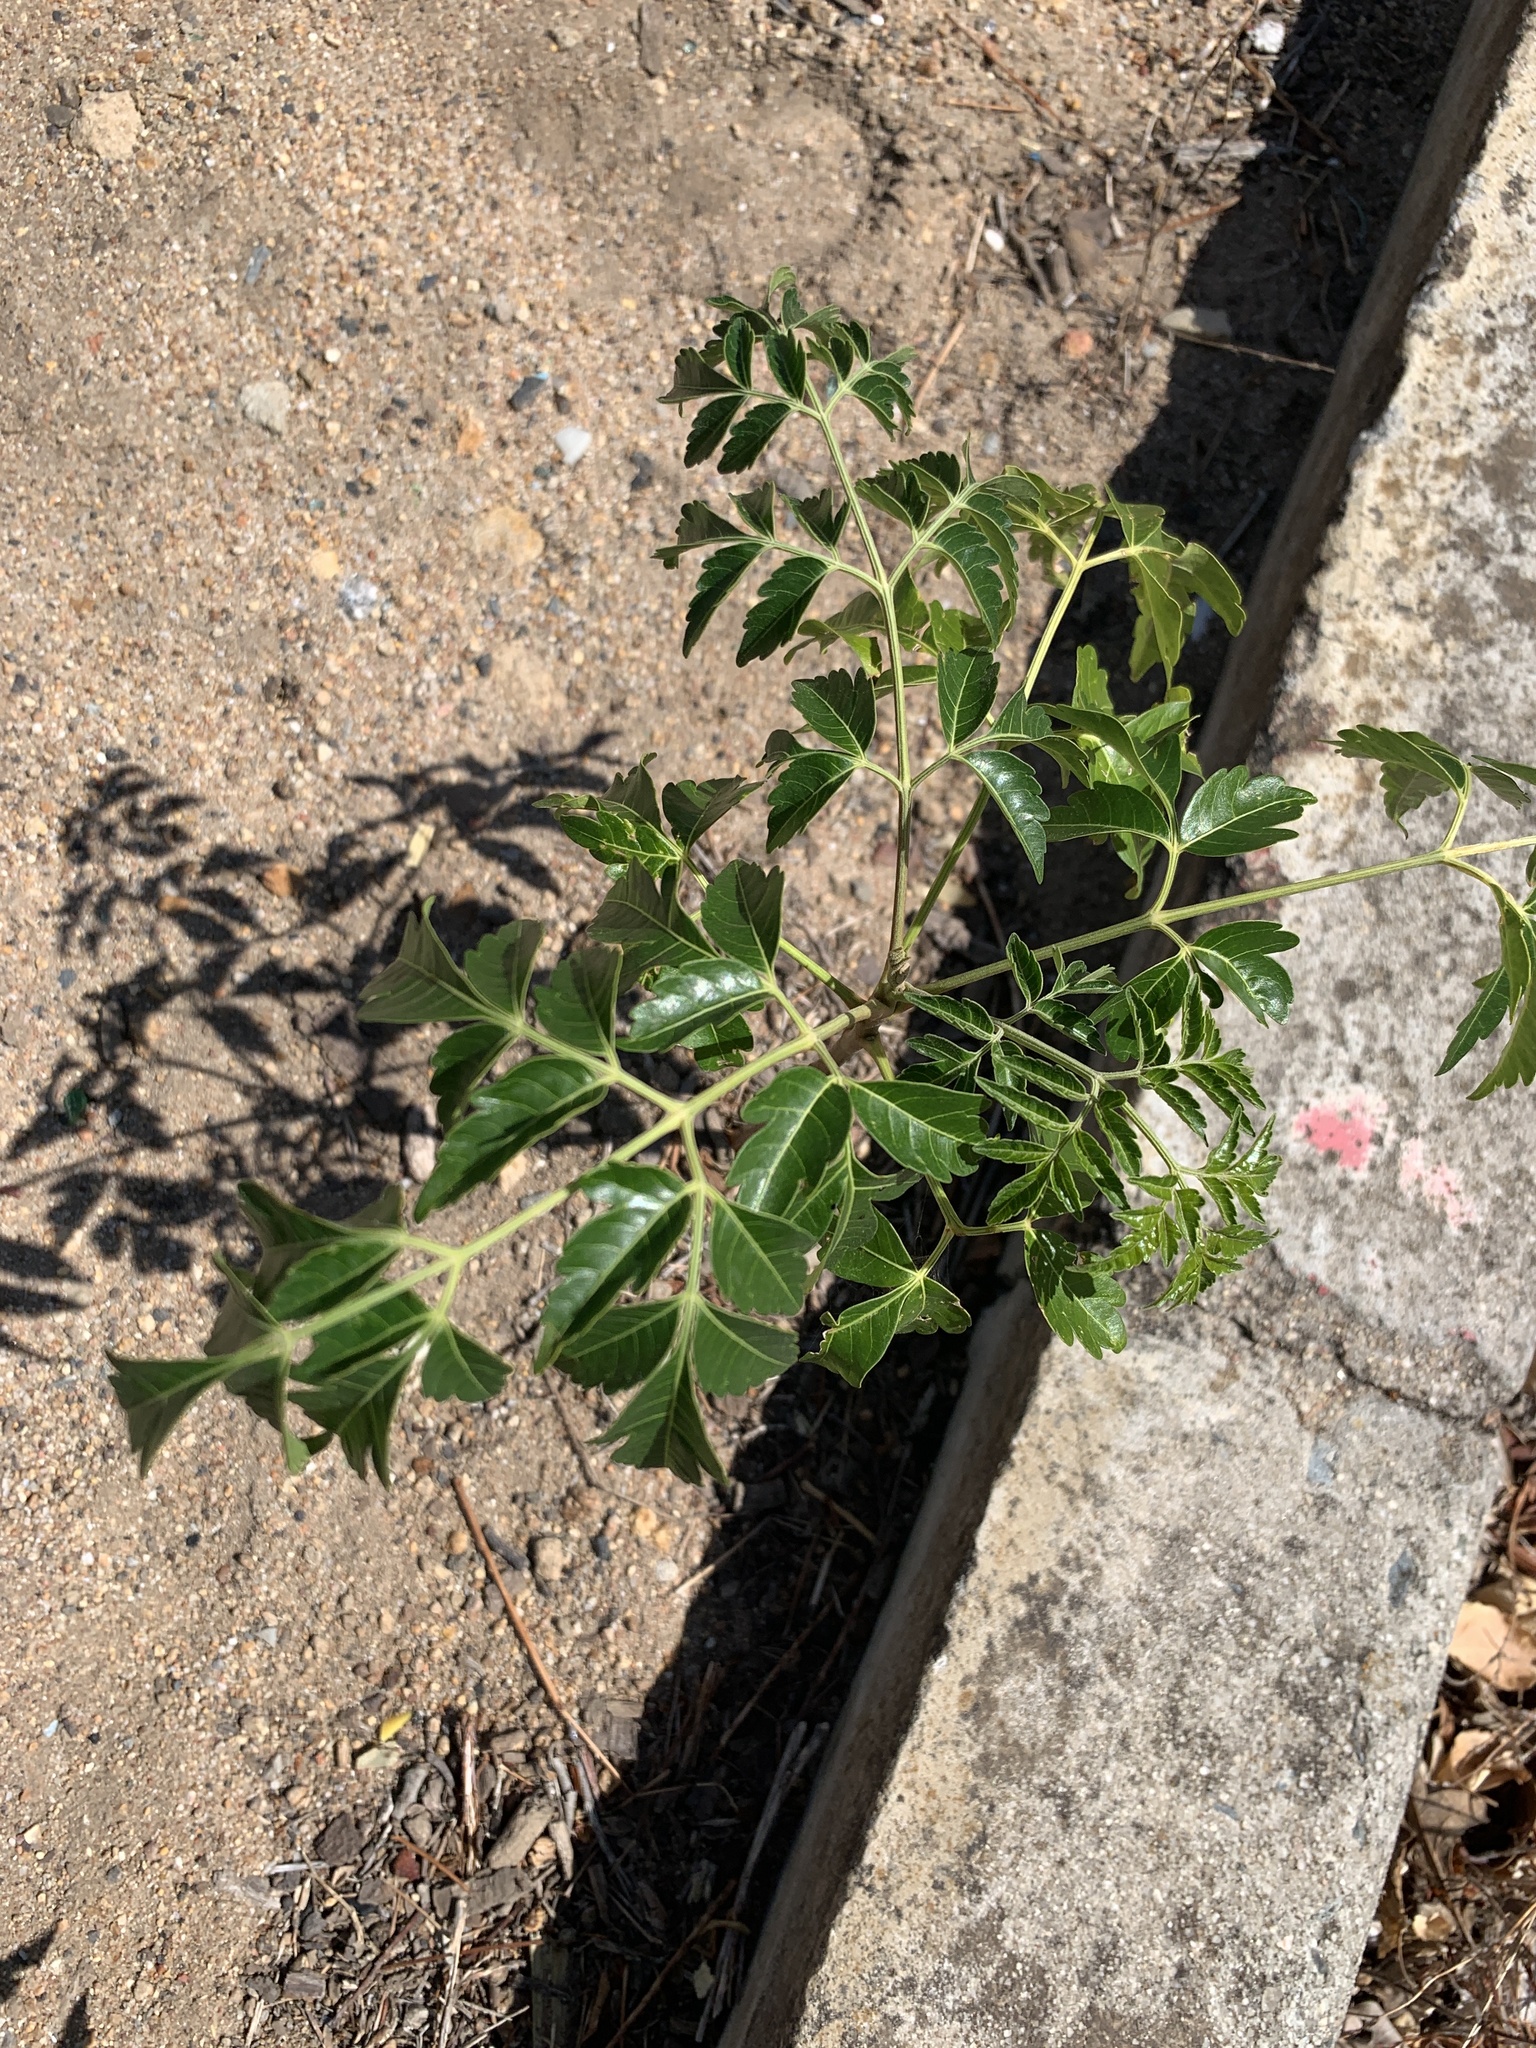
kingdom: Plantae
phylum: Tracheophyta
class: Magnoliopsida
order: Sapindales
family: Meliaceae
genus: Melia
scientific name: Melia azedarach
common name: Chinaberrytree
